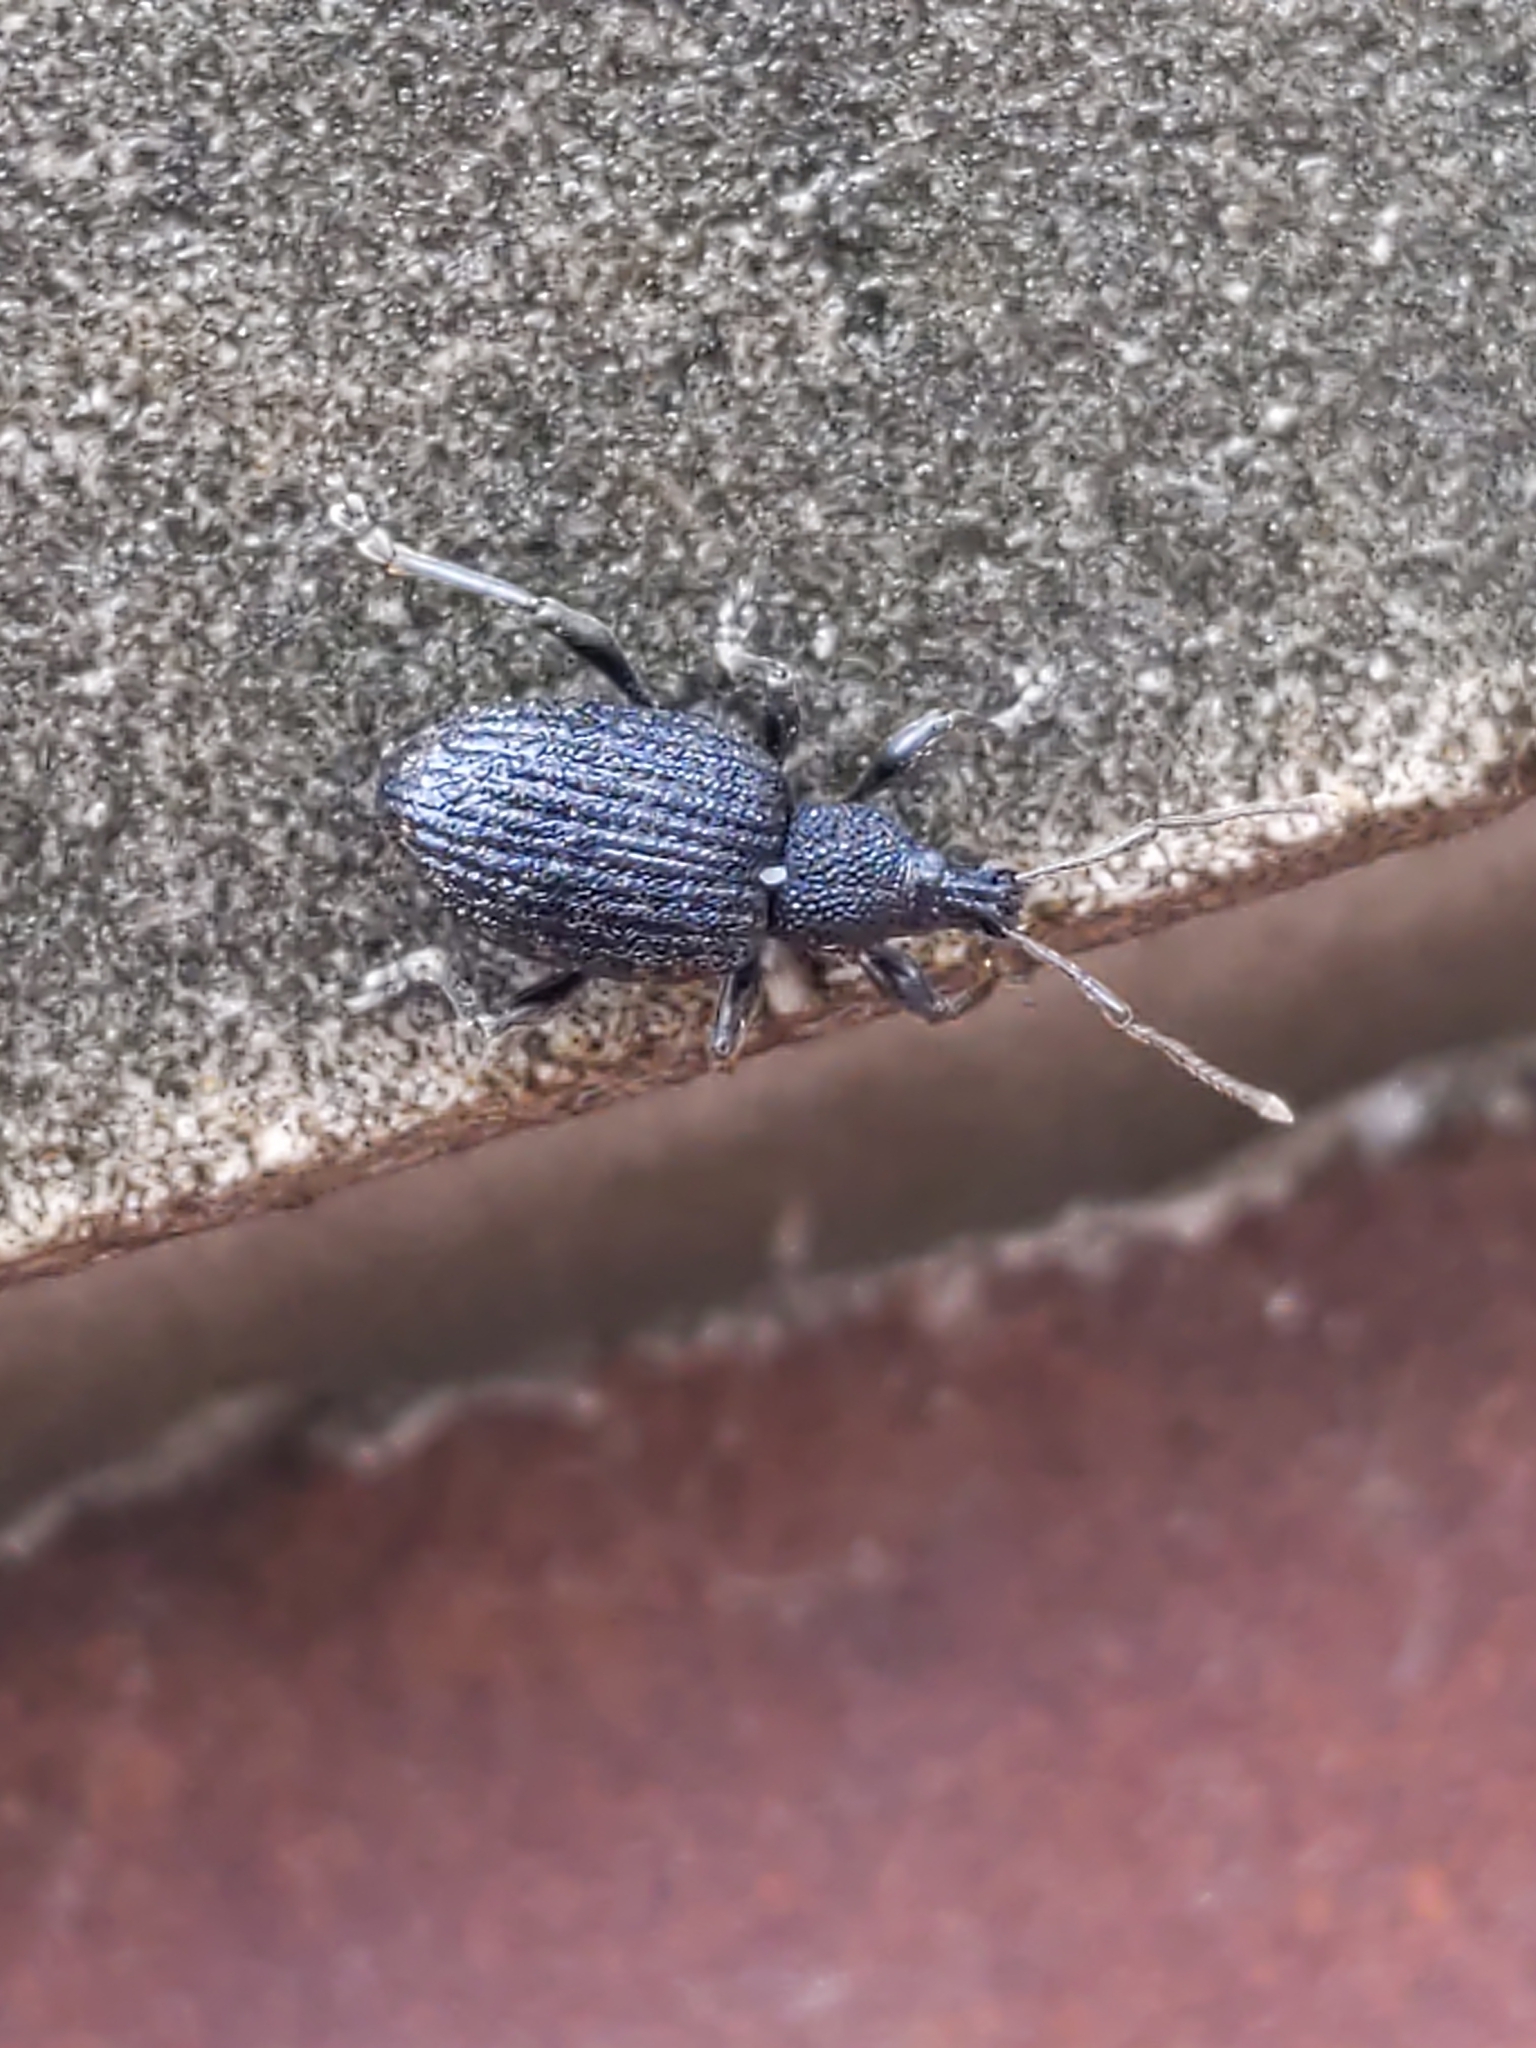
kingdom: Animalia
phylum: Arthropoda
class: Insecta
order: Coleoptera
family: Curculionidae
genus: Otiorhynchus
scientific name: Otiorhynchus sulcatus
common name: Black vine weevil
